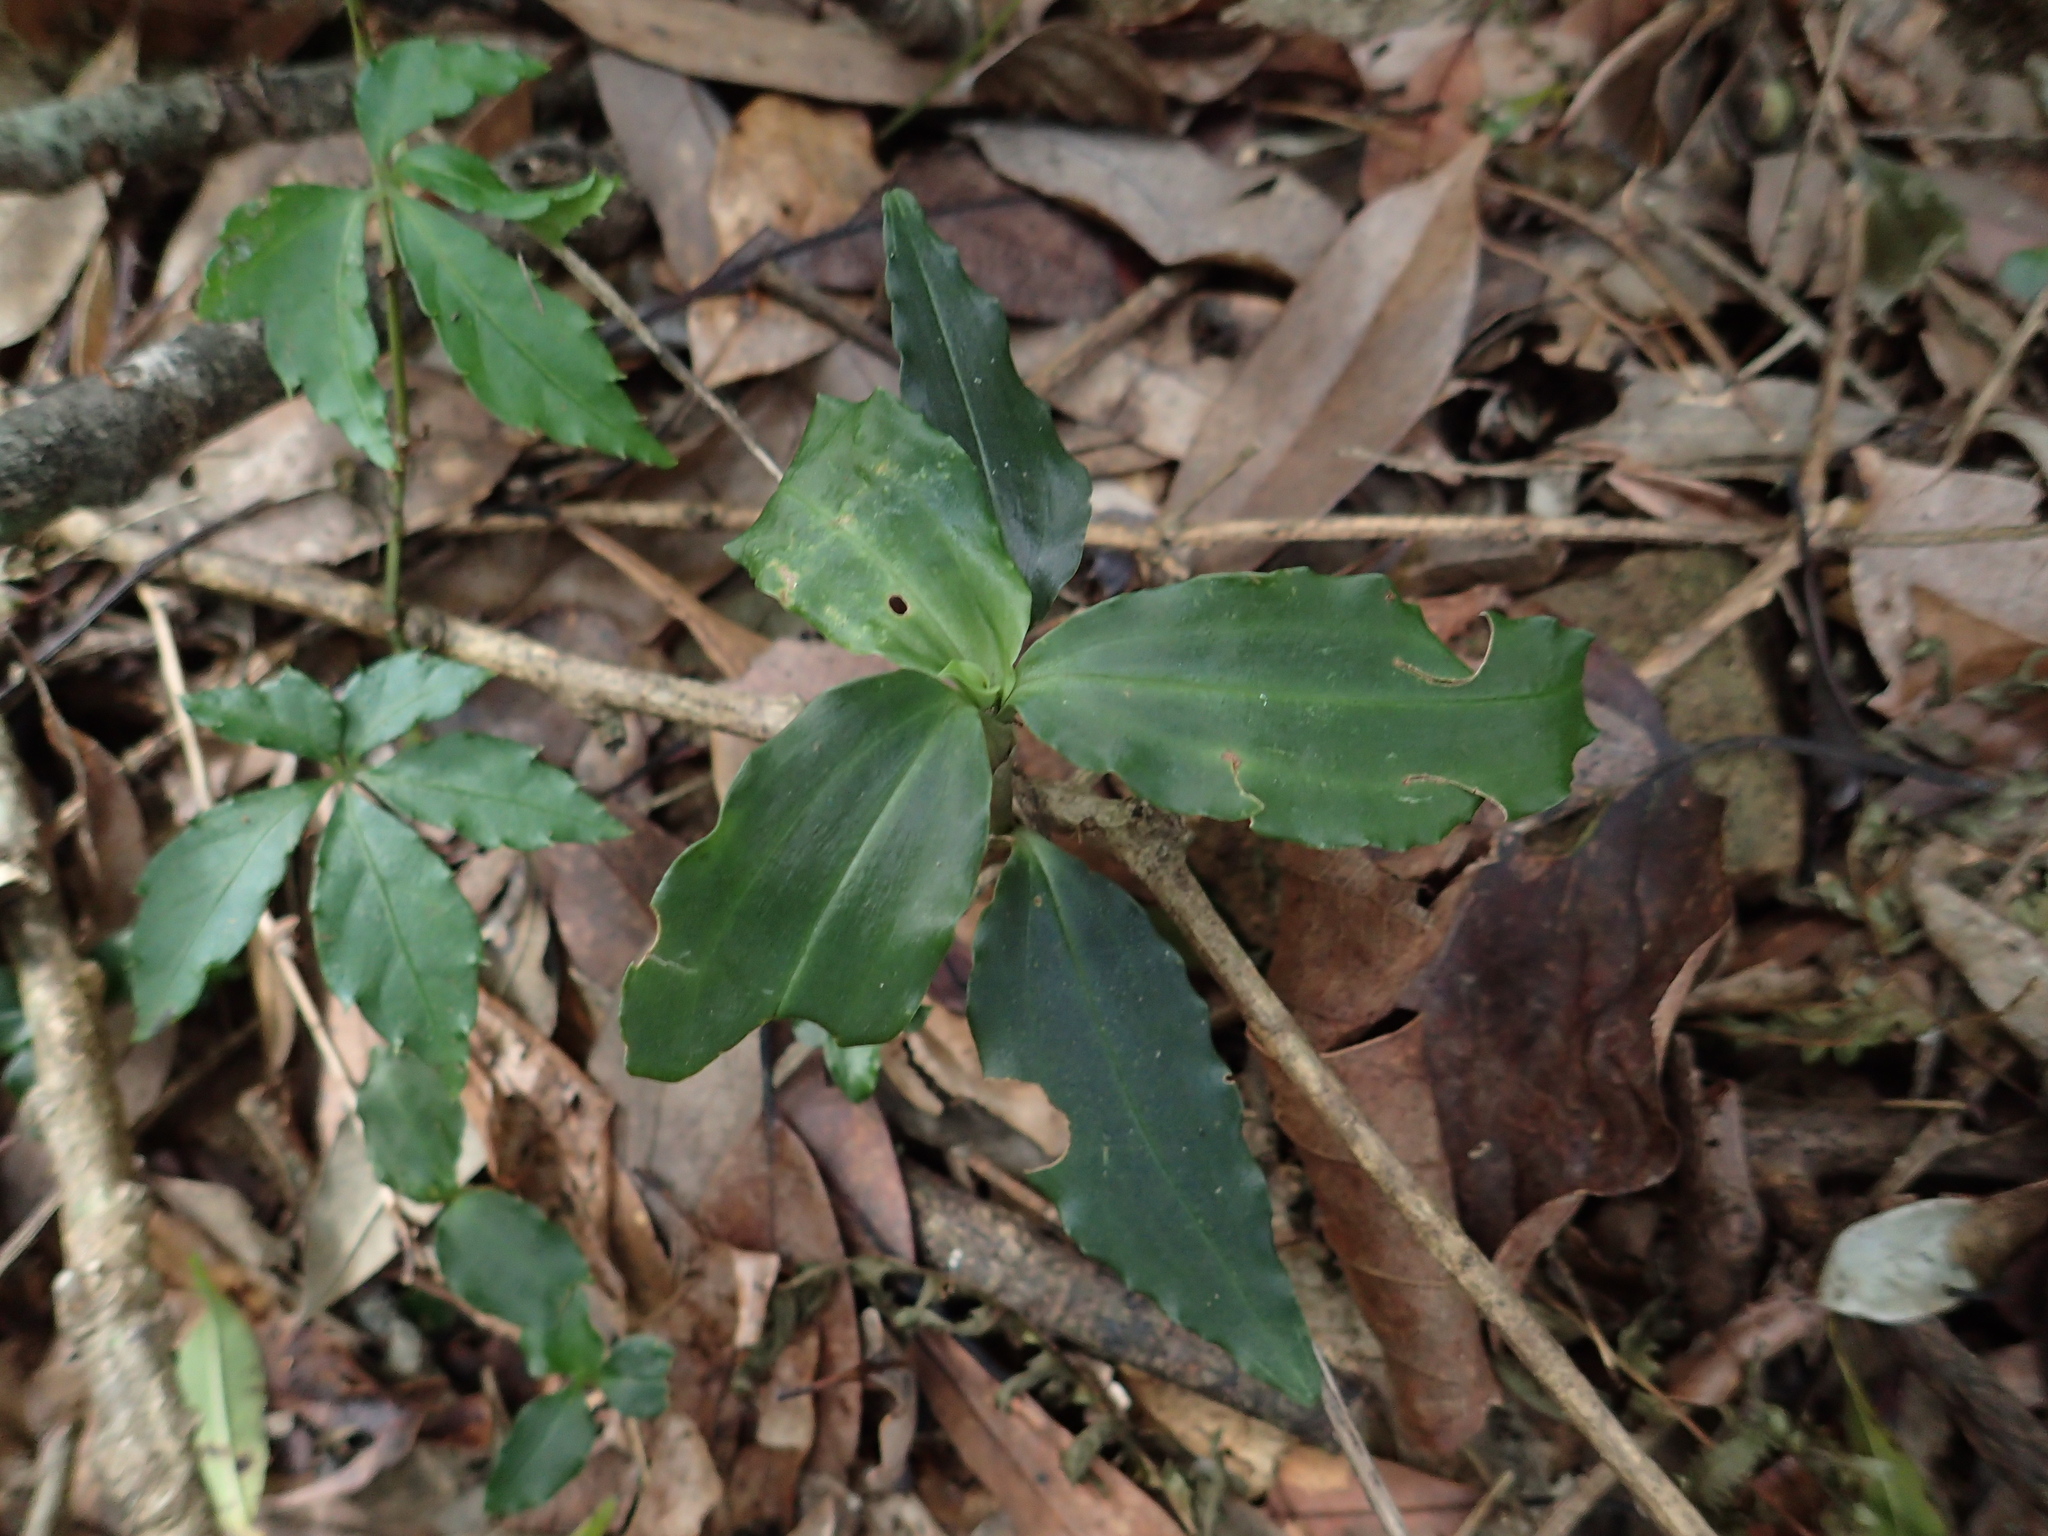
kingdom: Plantae
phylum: Tracheophyta
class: Liliopsida
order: Asparagales
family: Orchidaceae
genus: Goodyera
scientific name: Goodyera foliosa
